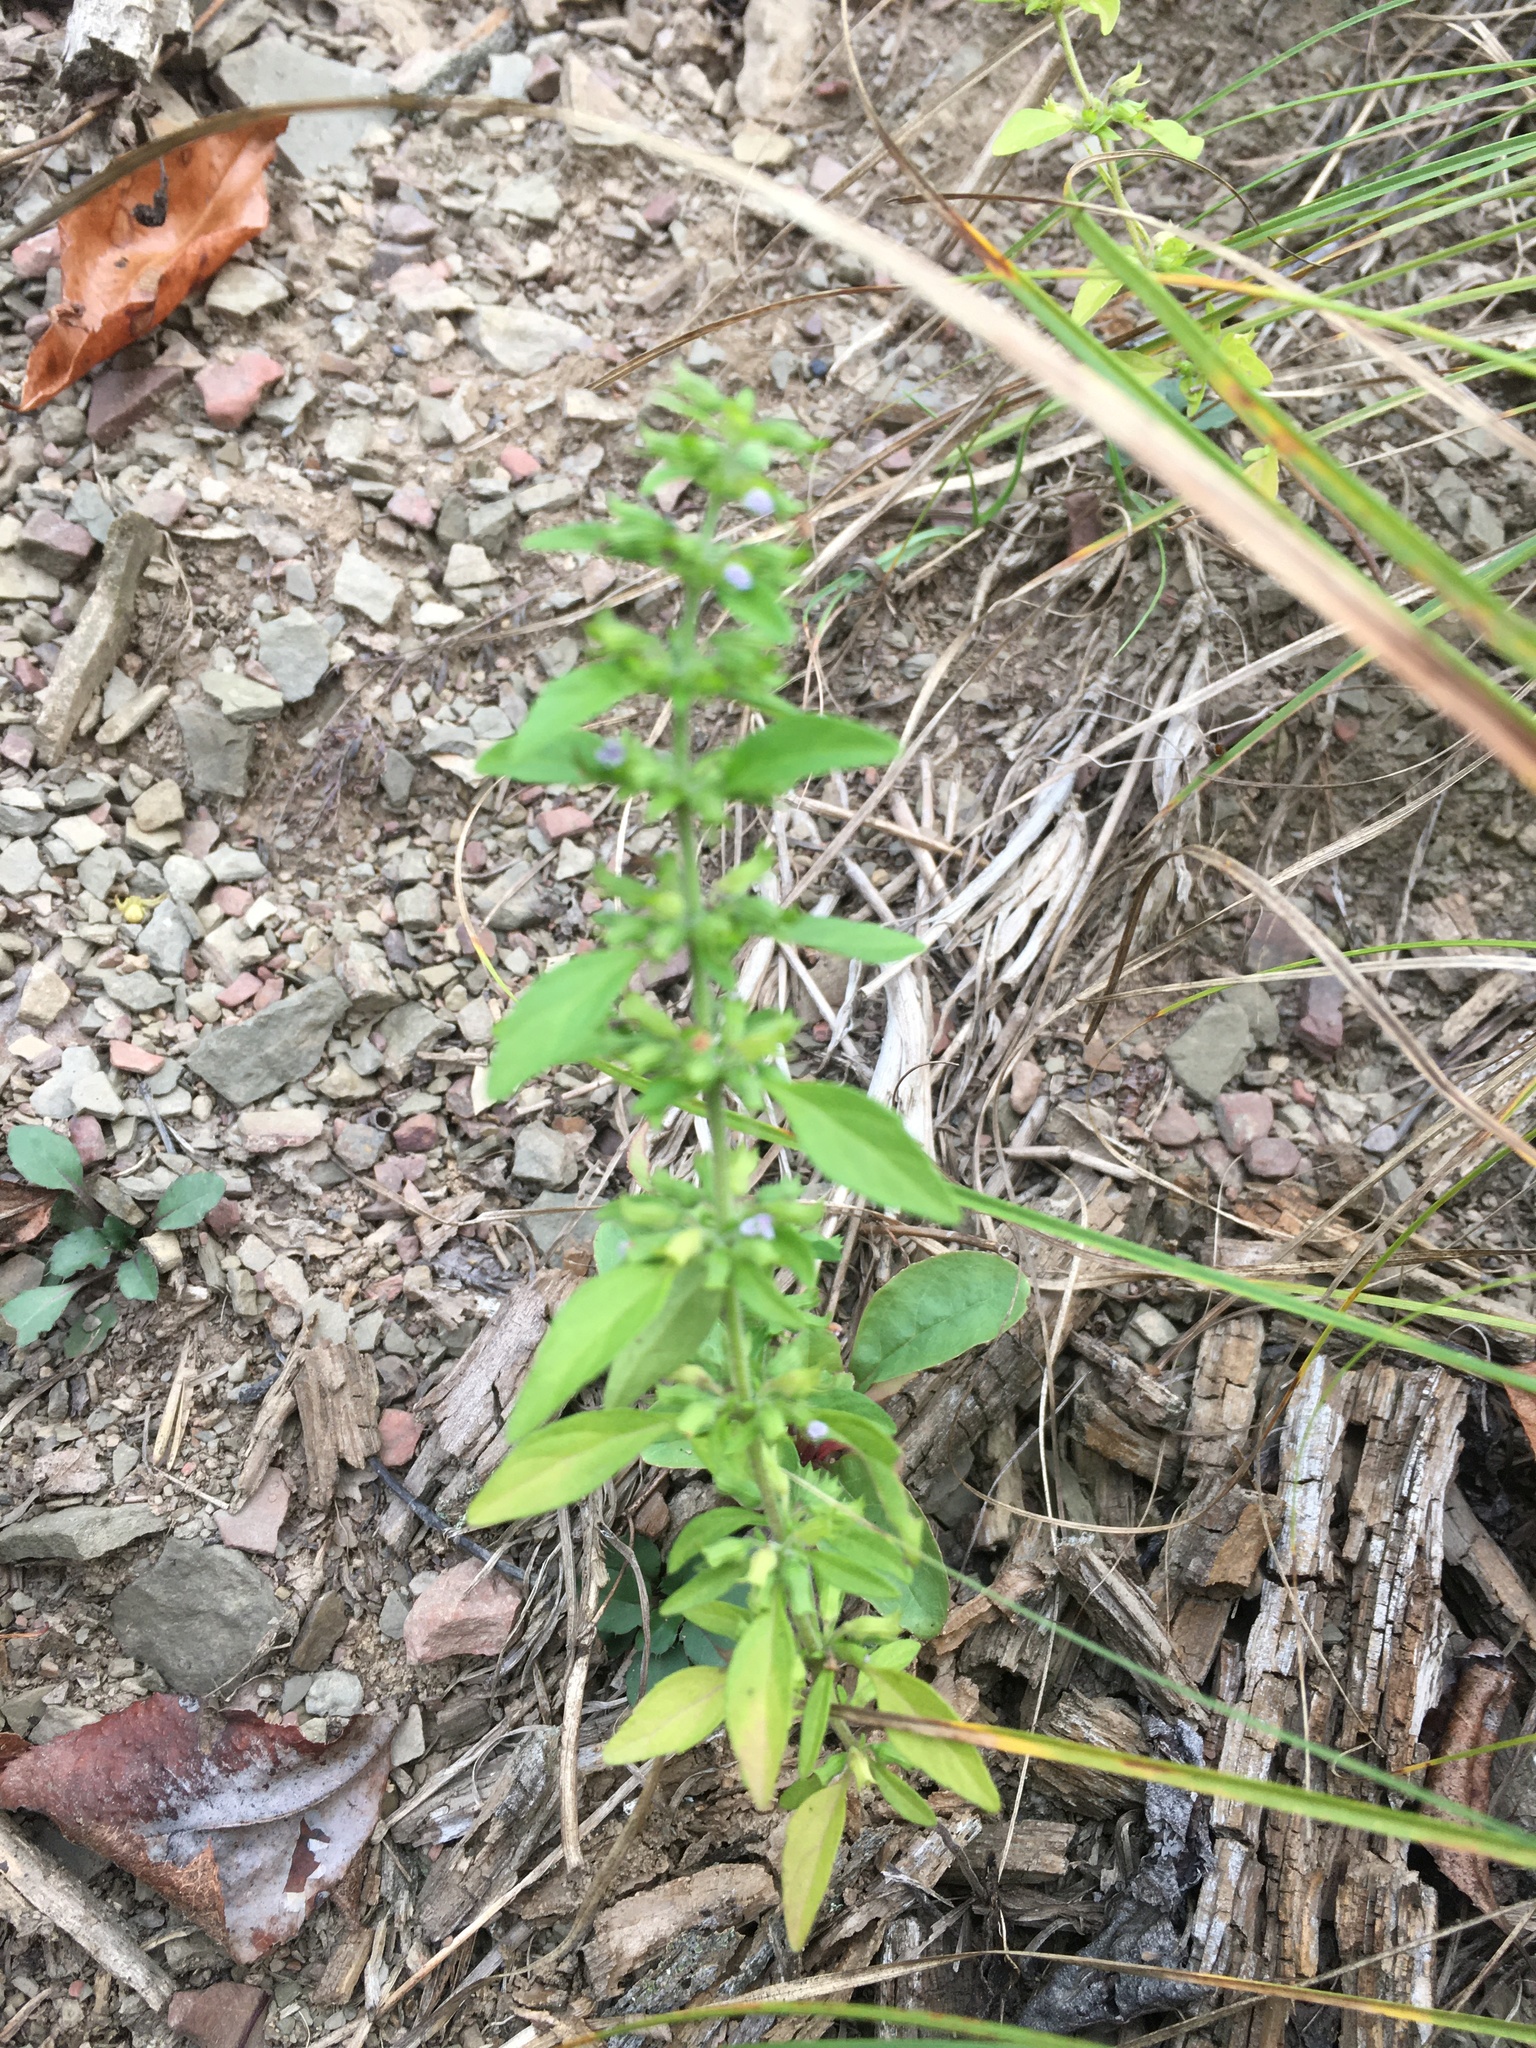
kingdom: Plantae
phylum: Tracheophyta
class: Magnoliopsida
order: Lamiales
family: Lamiaceae
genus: Hedeoma
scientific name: Hedeoma pulegioides
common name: American false pennyroyal
